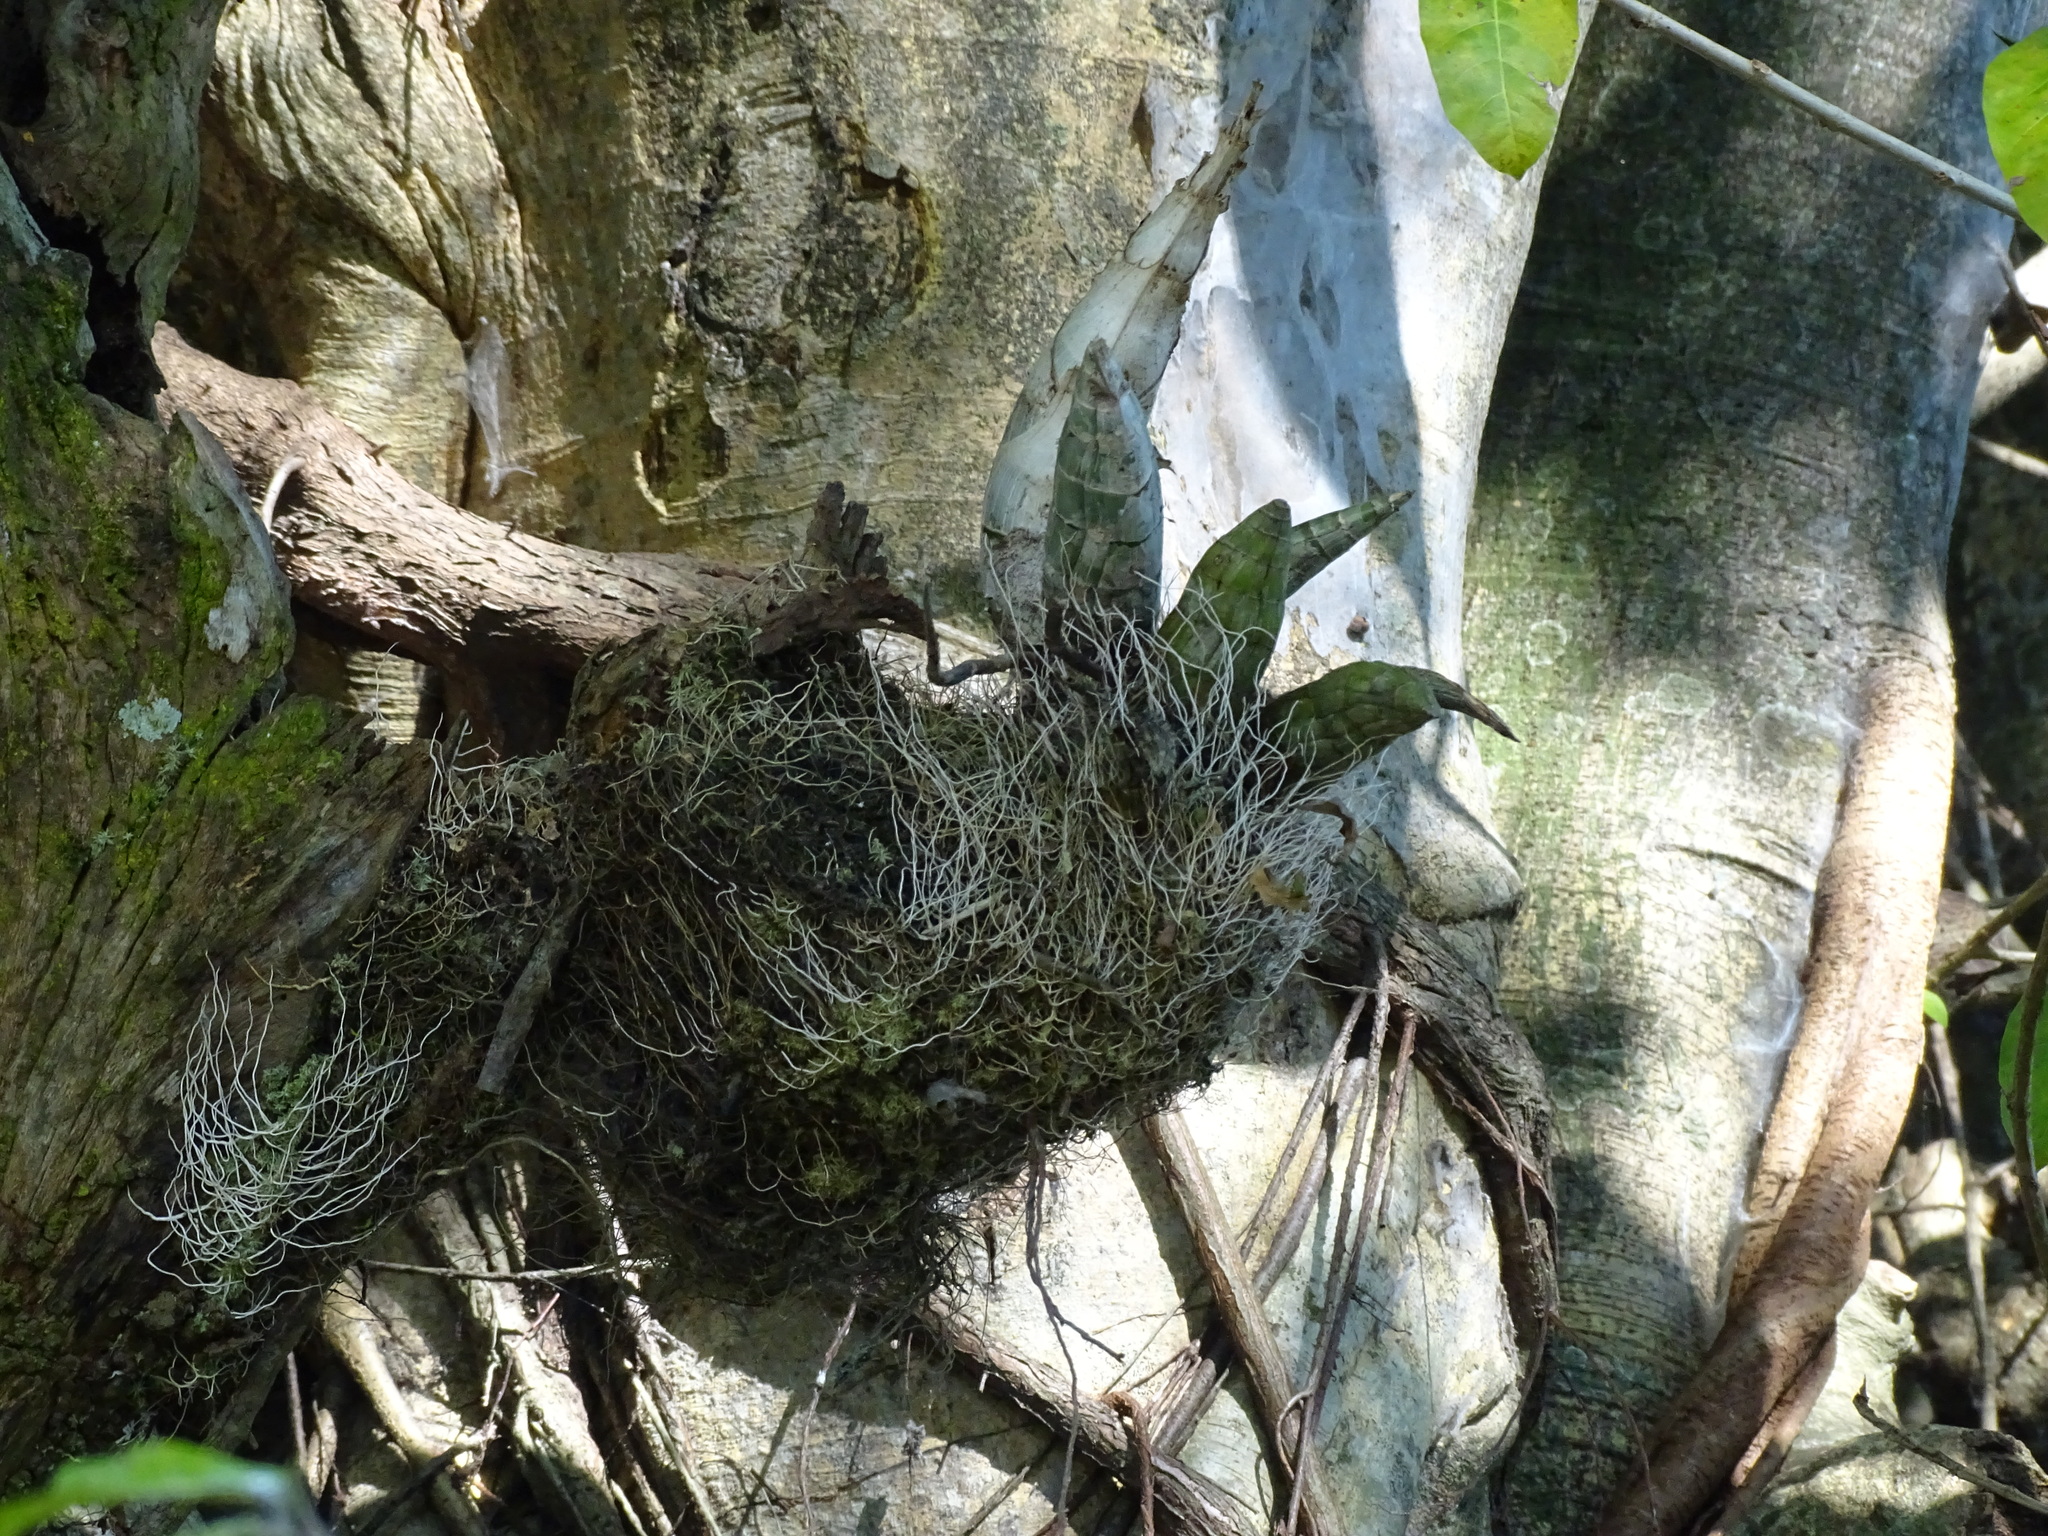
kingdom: Plantae
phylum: Tracheophyta
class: Liliopsida
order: Asparagales
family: Orchidaceae
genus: Catasetum
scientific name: Catasetum integerrimum
